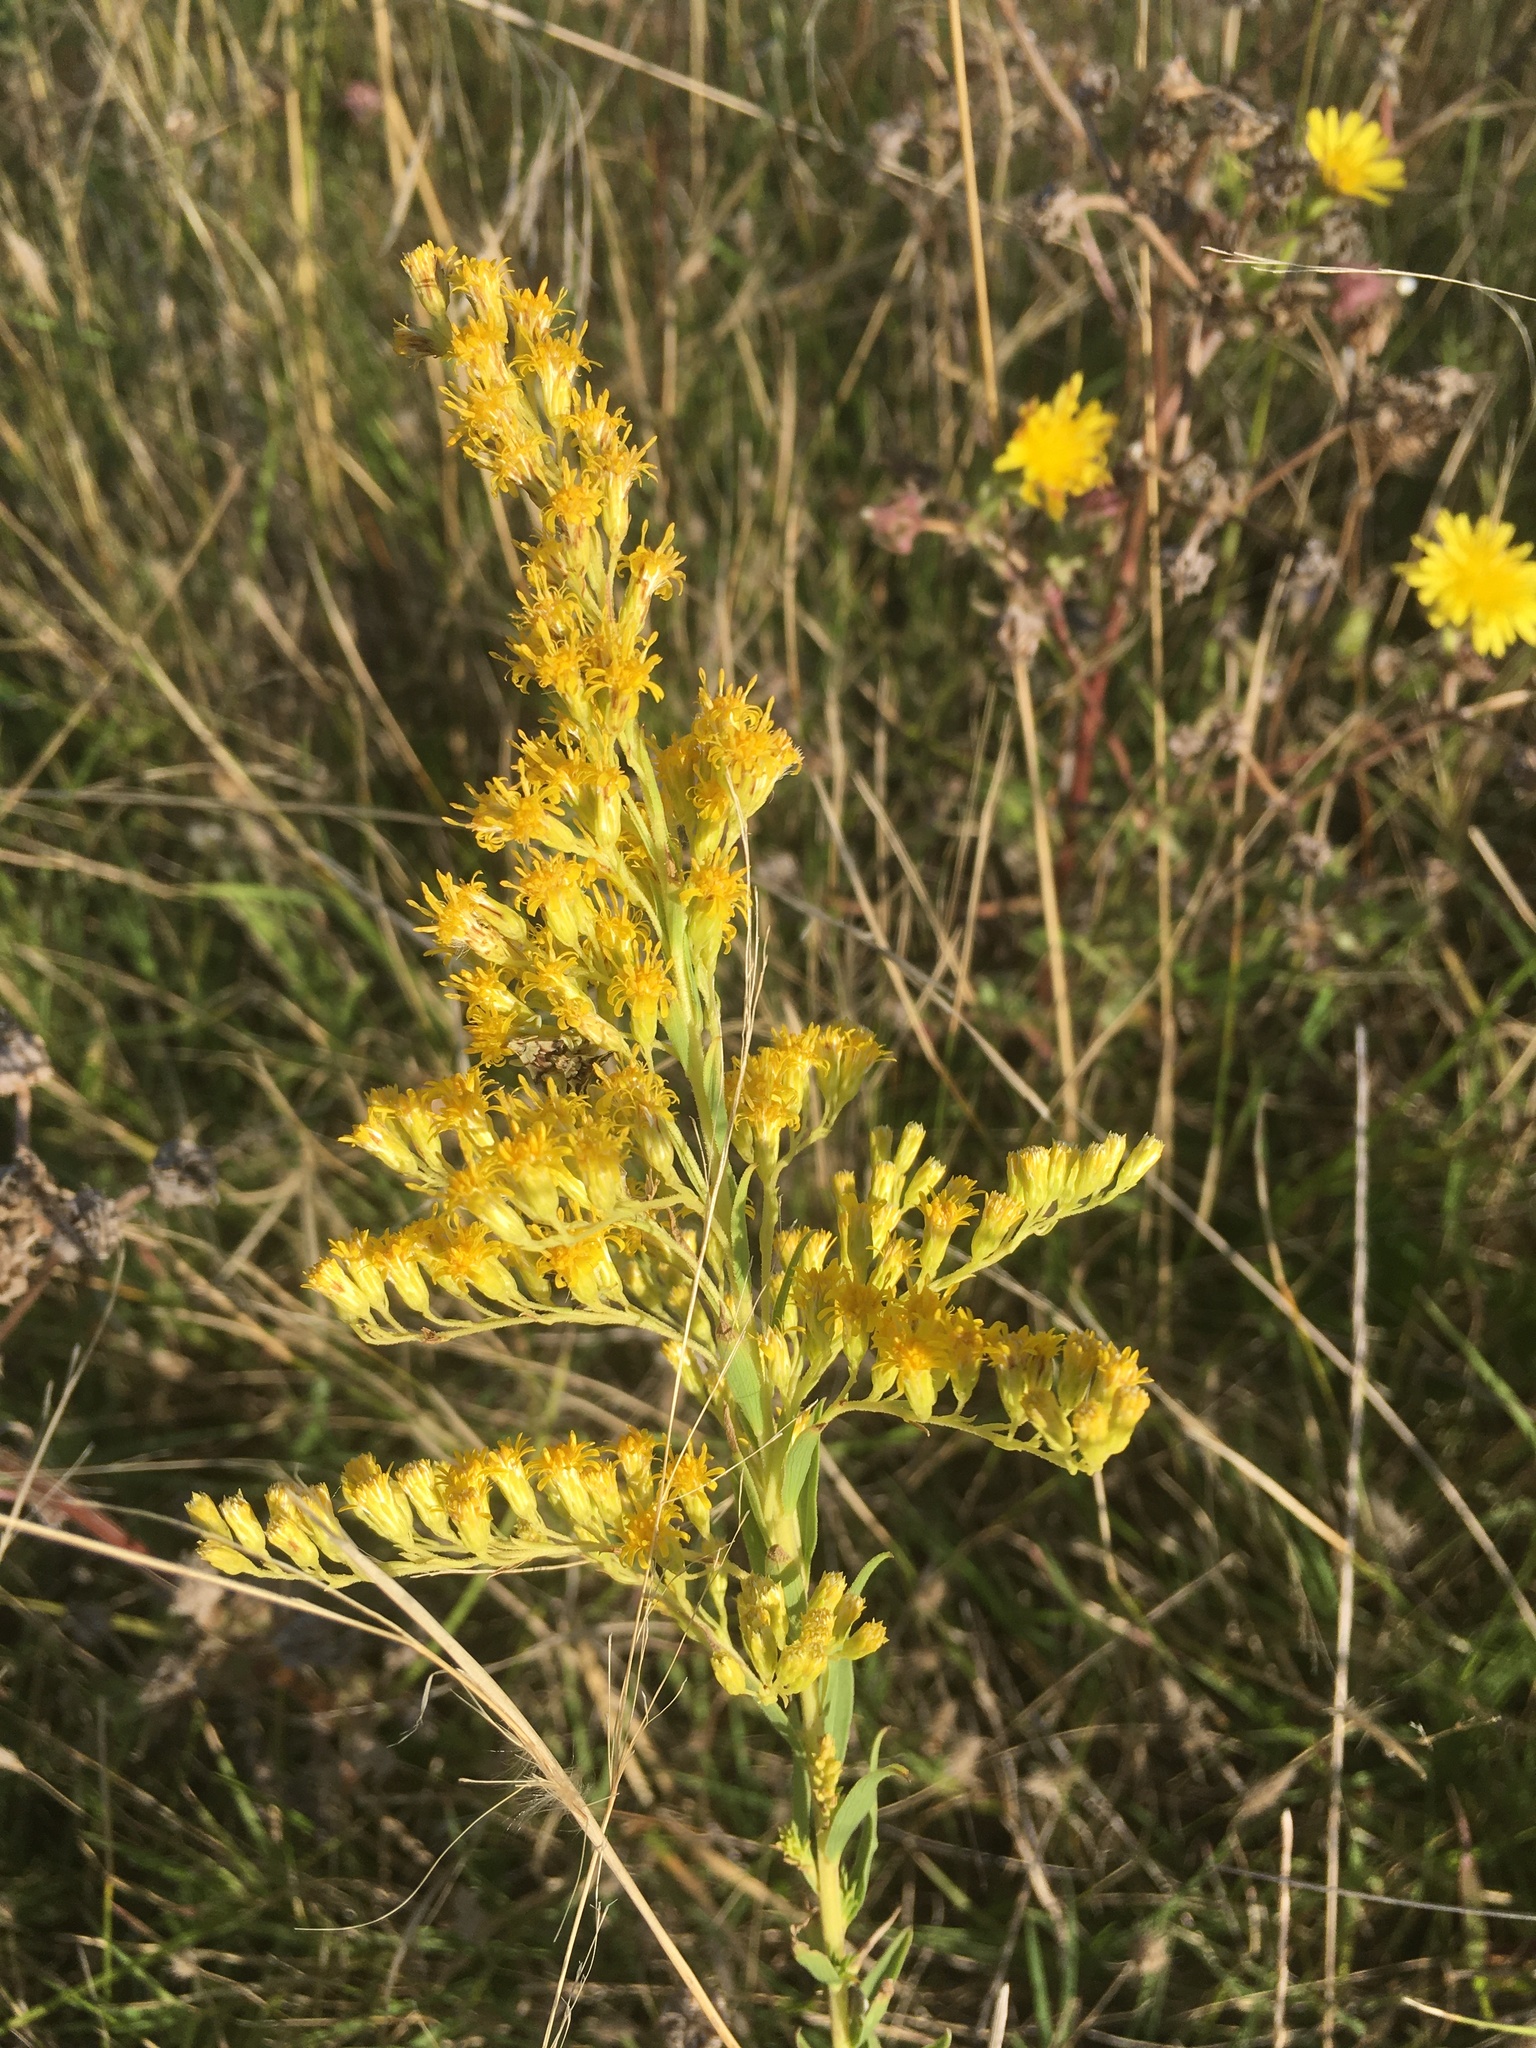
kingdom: Plantae
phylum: Tracheophyta
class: Magnoliopsida
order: Asterales
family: Asteraceae
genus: Solidago
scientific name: Solidago chilensis
